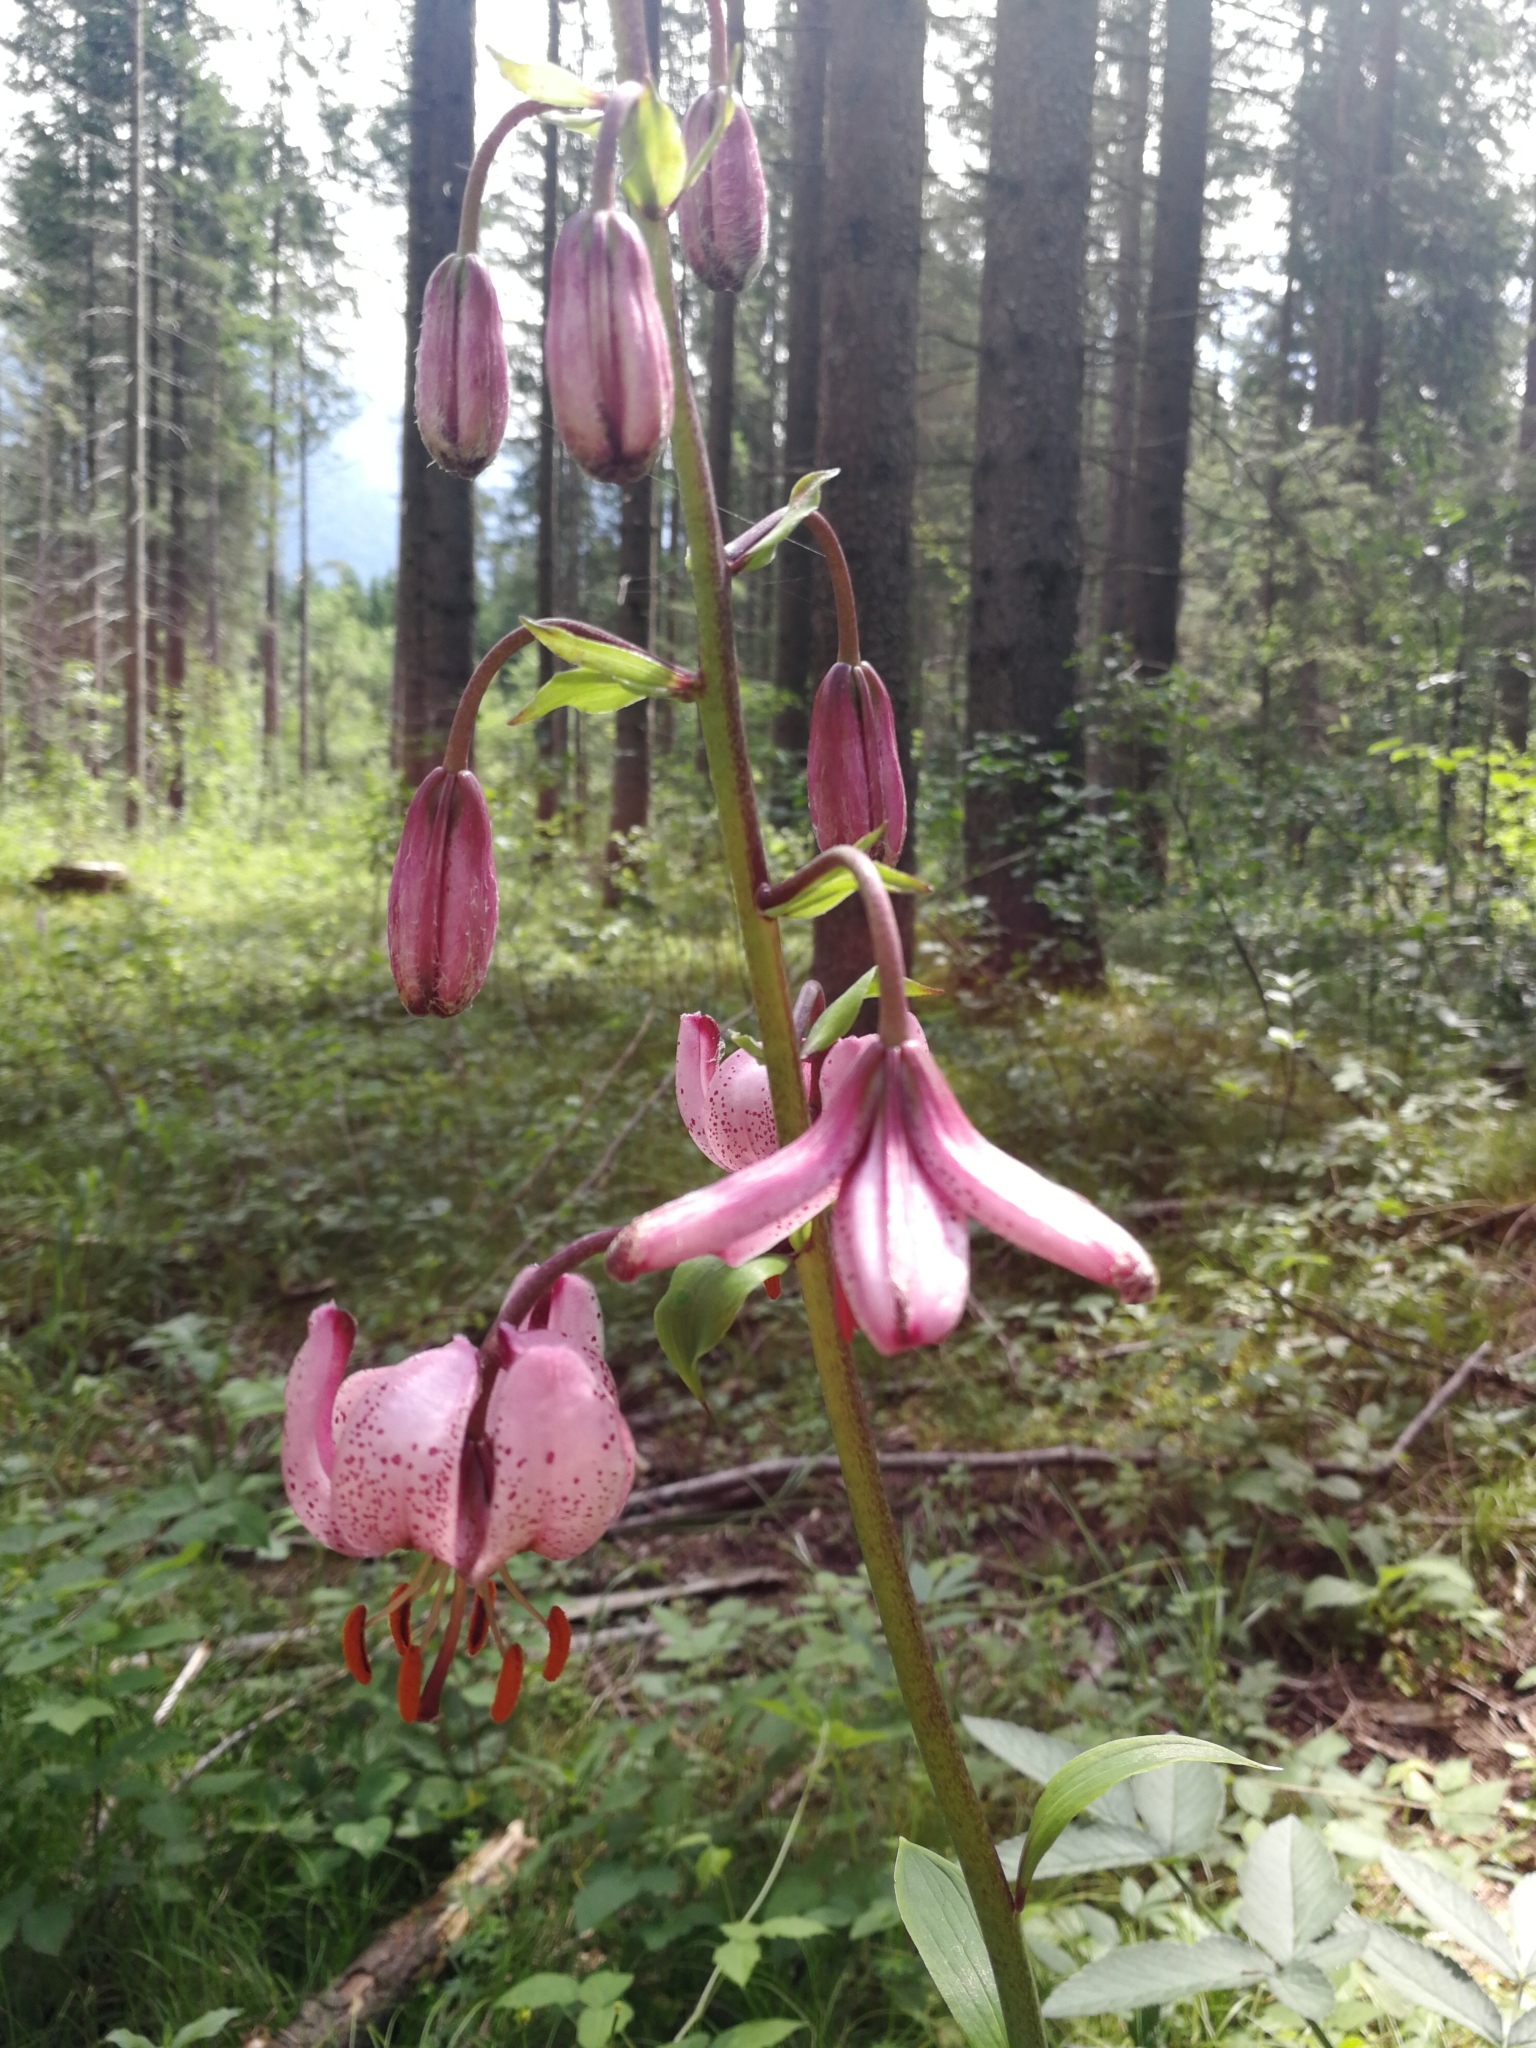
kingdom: Plantae
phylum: Tracheophyta
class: Liliopsida
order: Liliales
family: Liliaceae
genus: Lilium
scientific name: Lilium martagon
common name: Martagon lily
